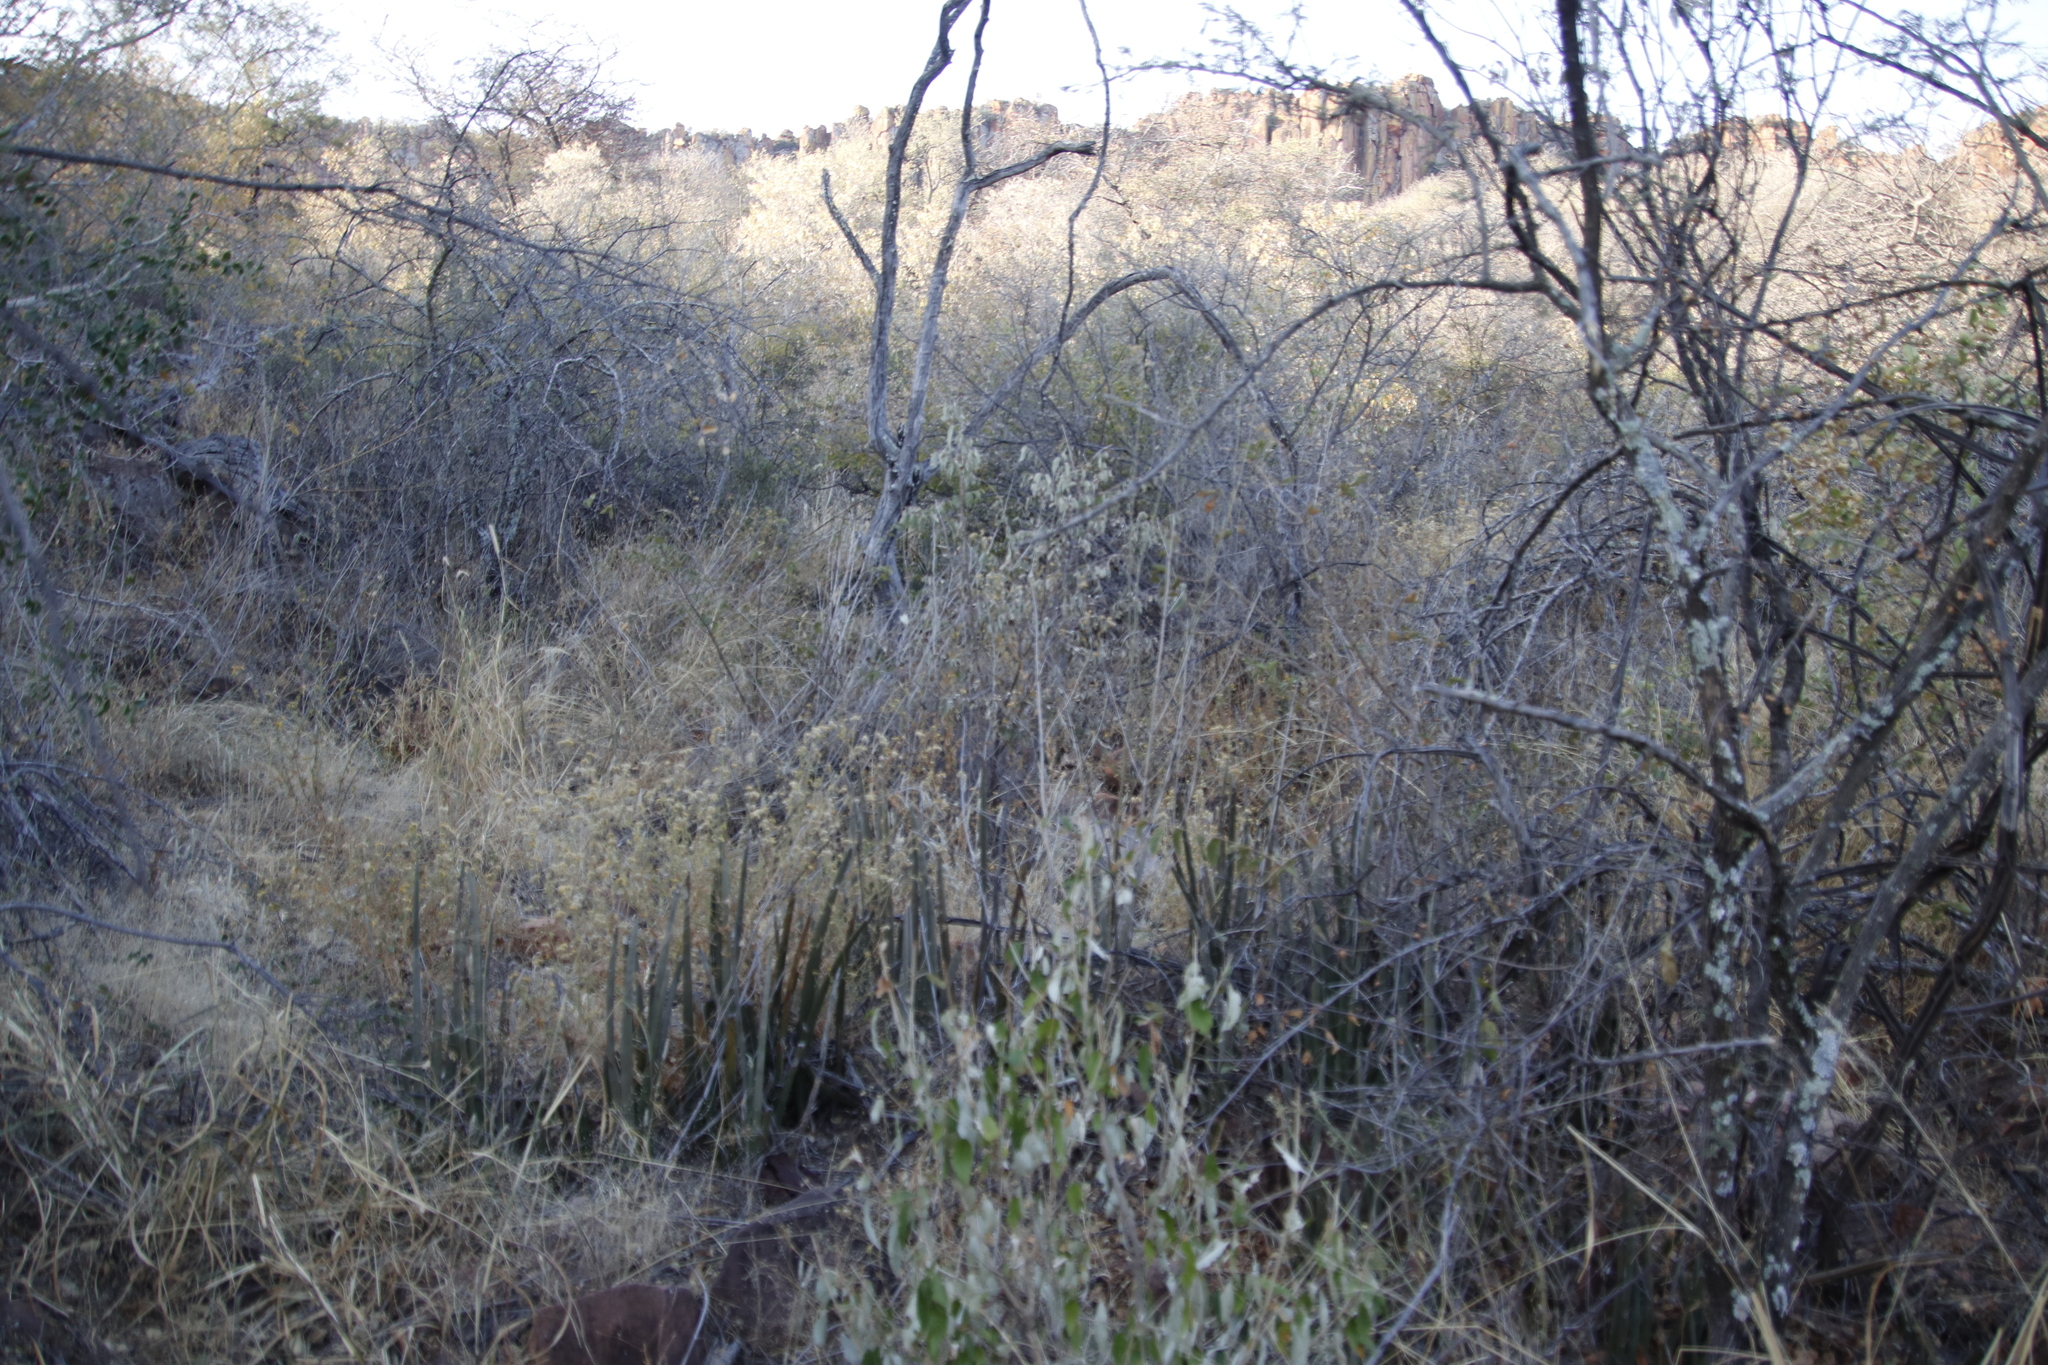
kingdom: Plantae
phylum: Tracheophyta
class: Liliopsida
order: Asparagales
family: Asparagaceae
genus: Dracaena
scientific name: Dracaena pearsonii
